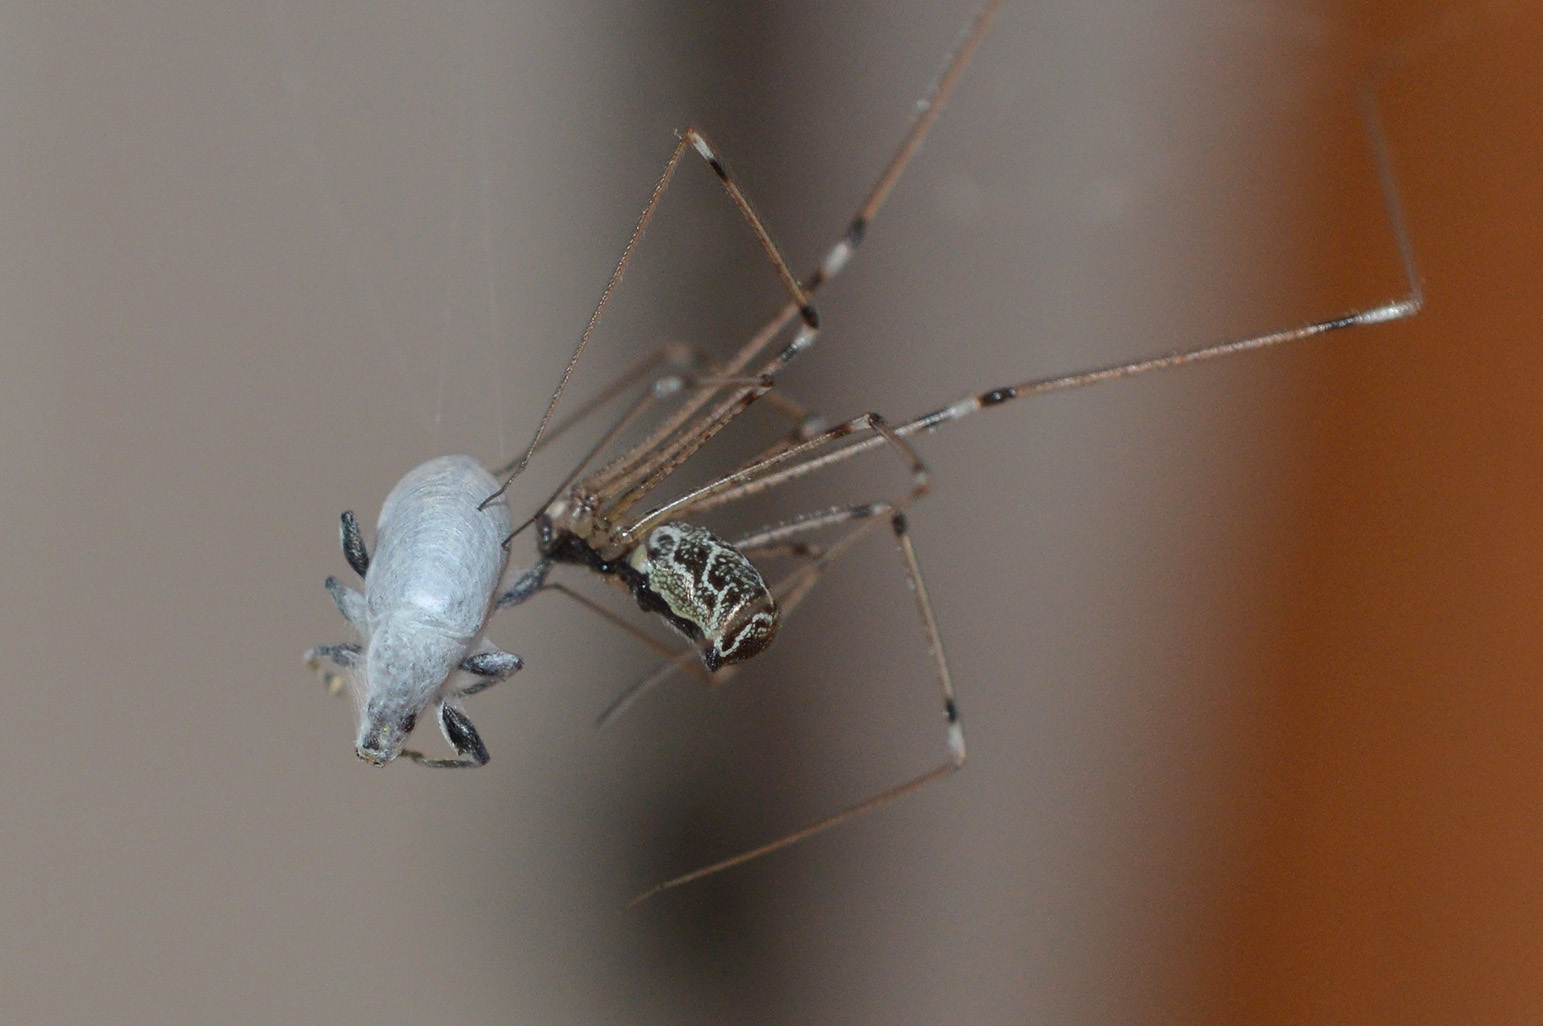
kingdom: Animalia
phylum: Arthropoda
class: Arachnida
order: Araneae
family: Pholcidae
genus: Holocnemus
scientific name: Holocnemus pluchei
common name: Marbled cellar spider
